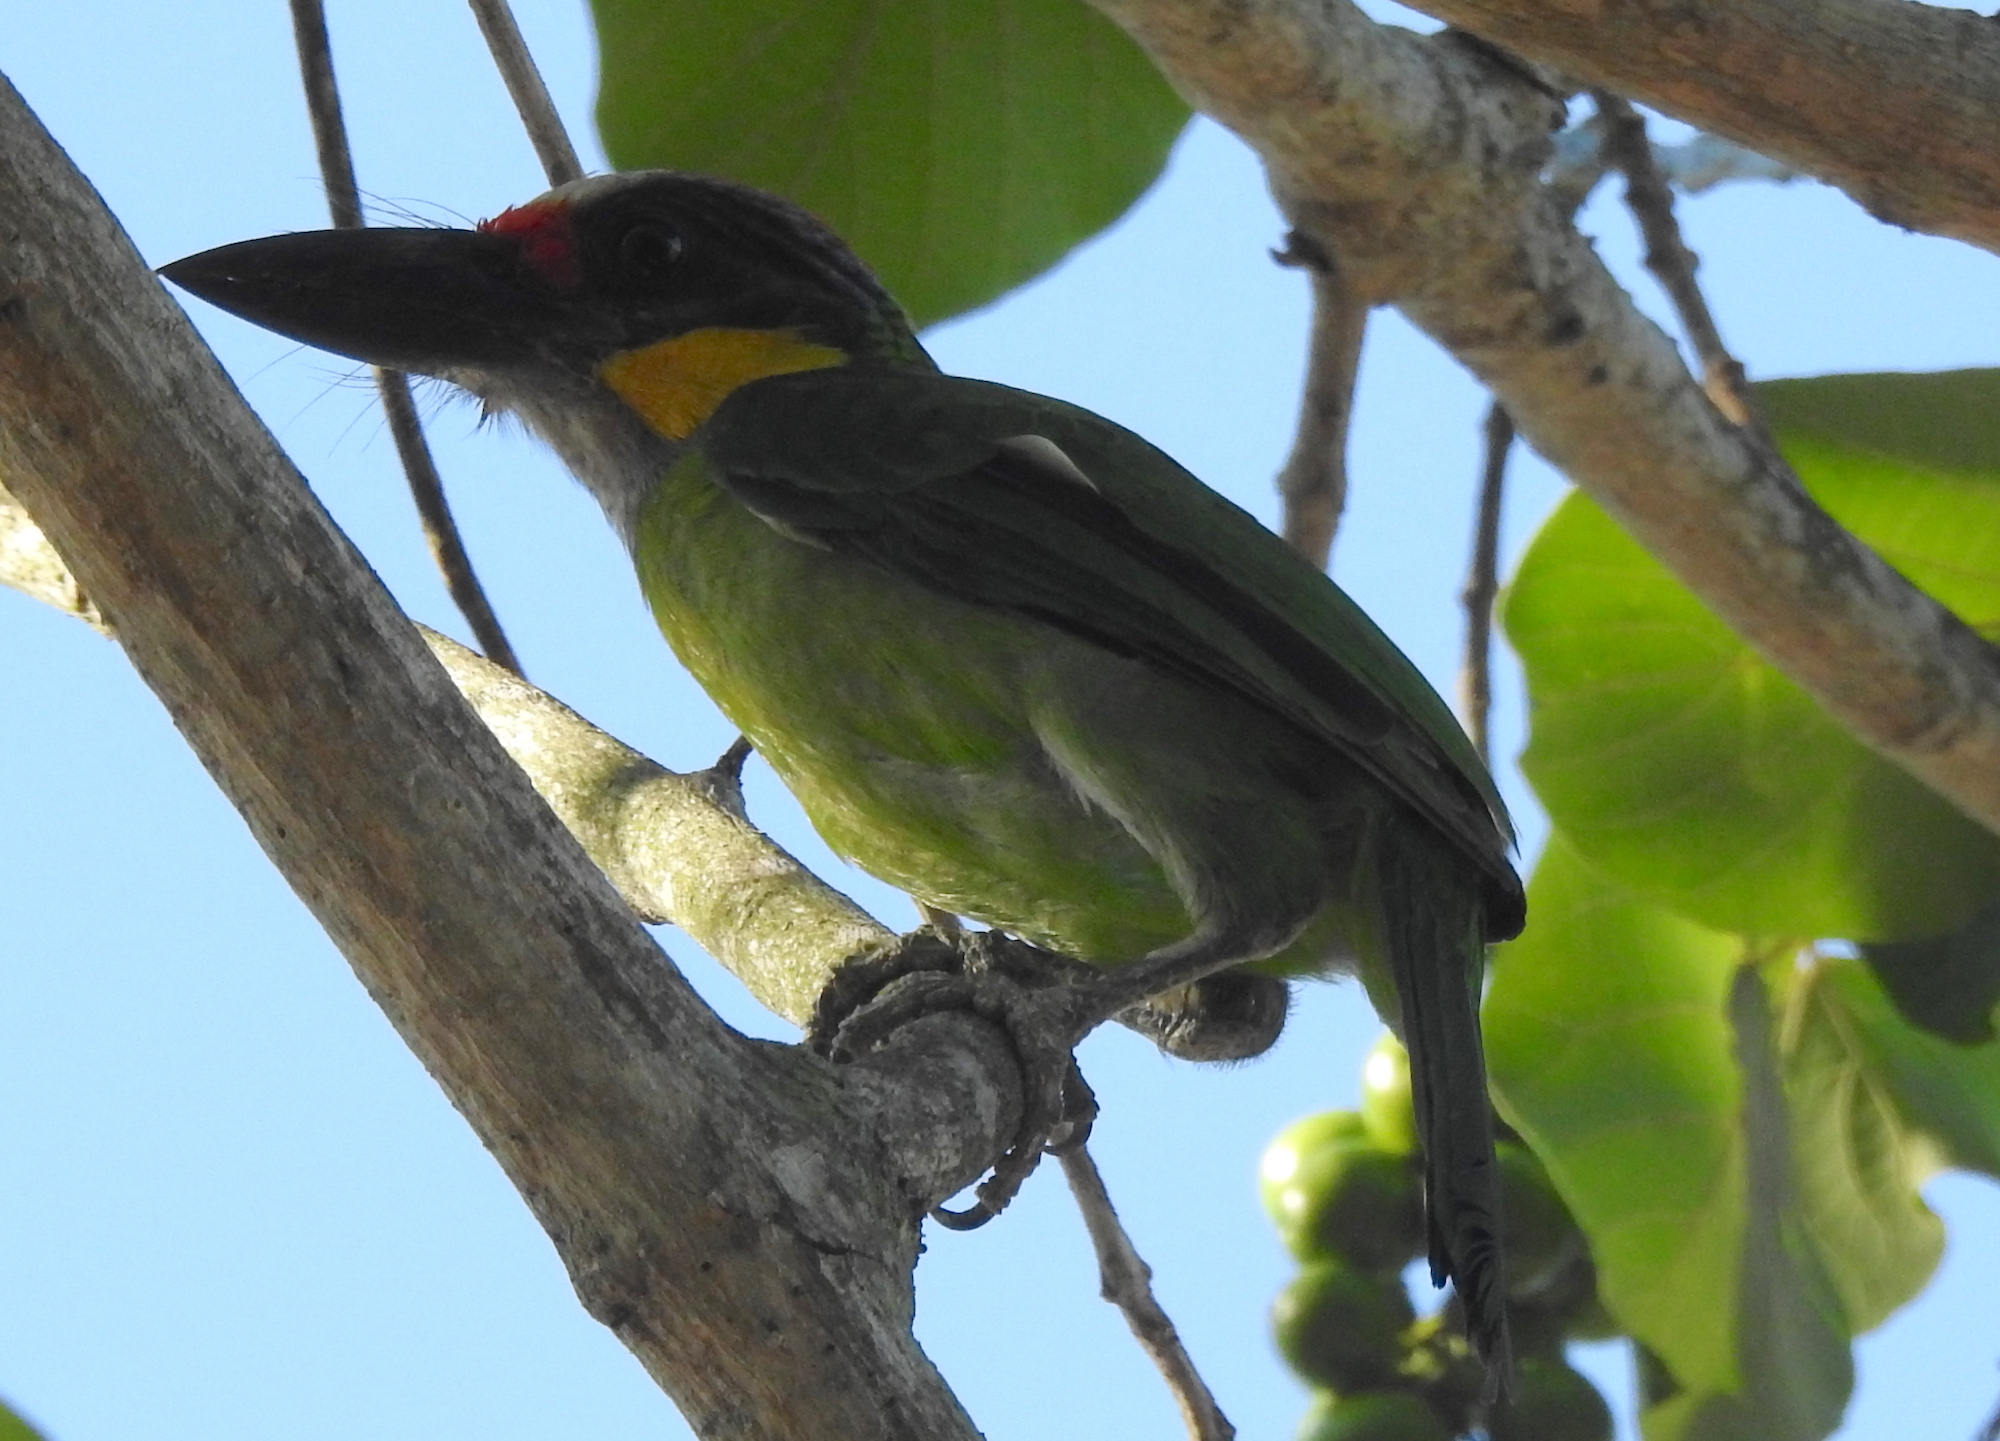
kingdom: Animalia
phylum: Chordata
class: Aves
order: Piciformes
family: Megalaimidae
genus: Psilopogon
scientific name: Psilopogon chrysopogon
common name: Golden-whiskered barbet
